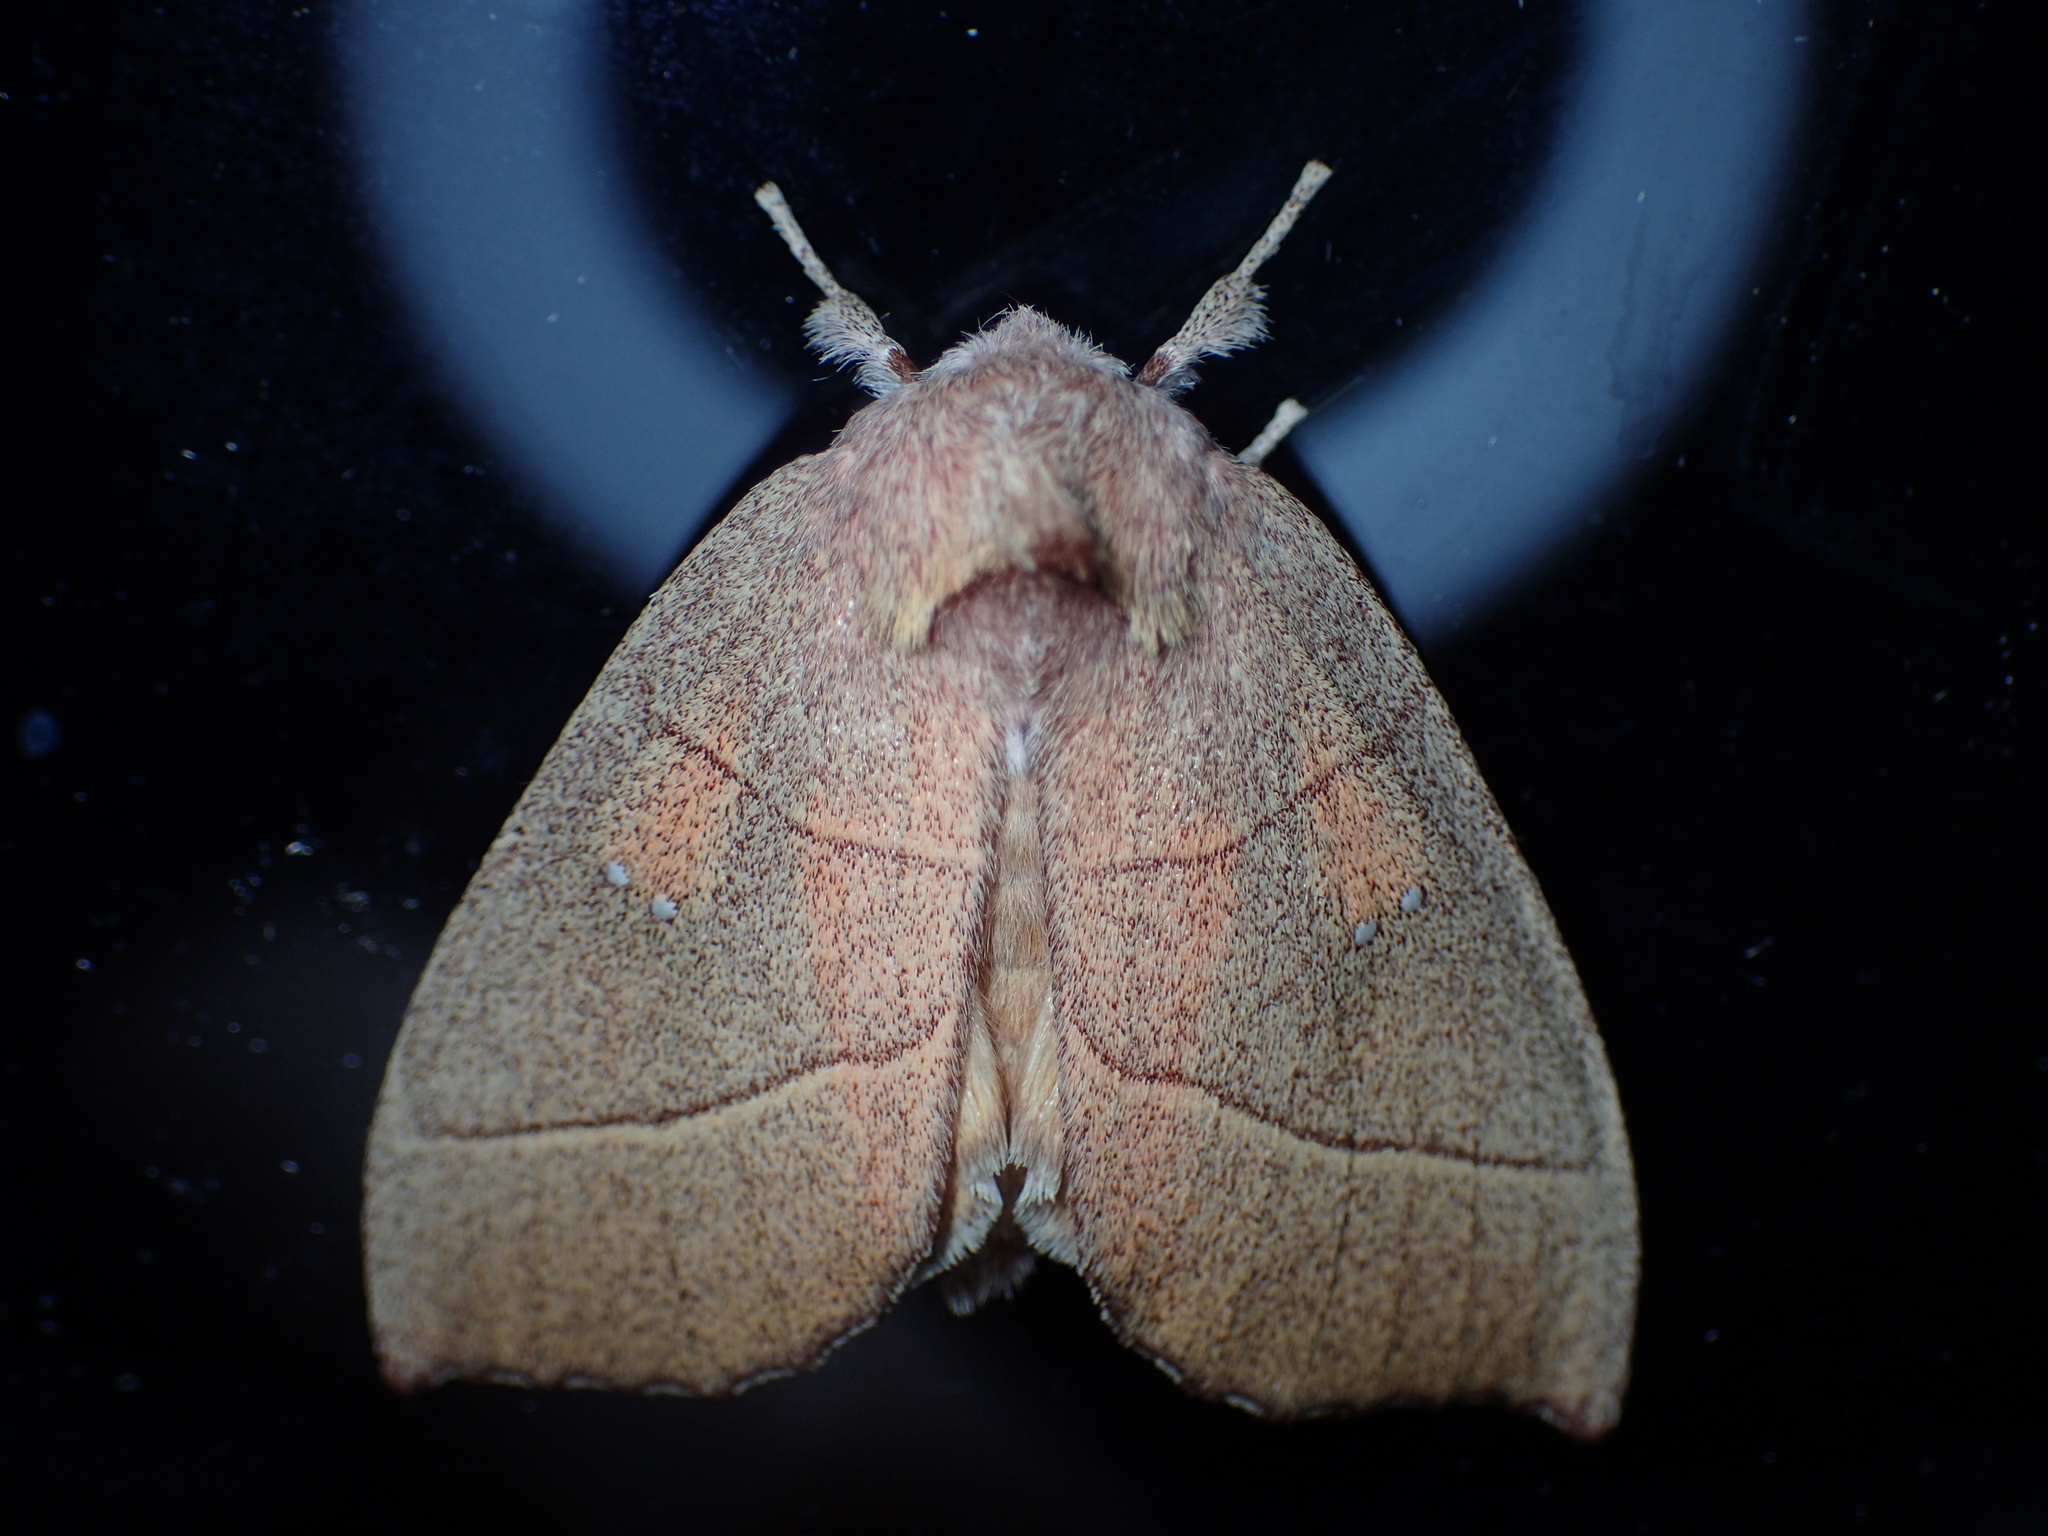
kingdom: Animalia
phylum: Arthropoda
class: Insecta
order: Lepidoptera
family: Notodontidae
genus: Nadata
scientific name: Nadata gibbosa
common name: White-dotted prominent
